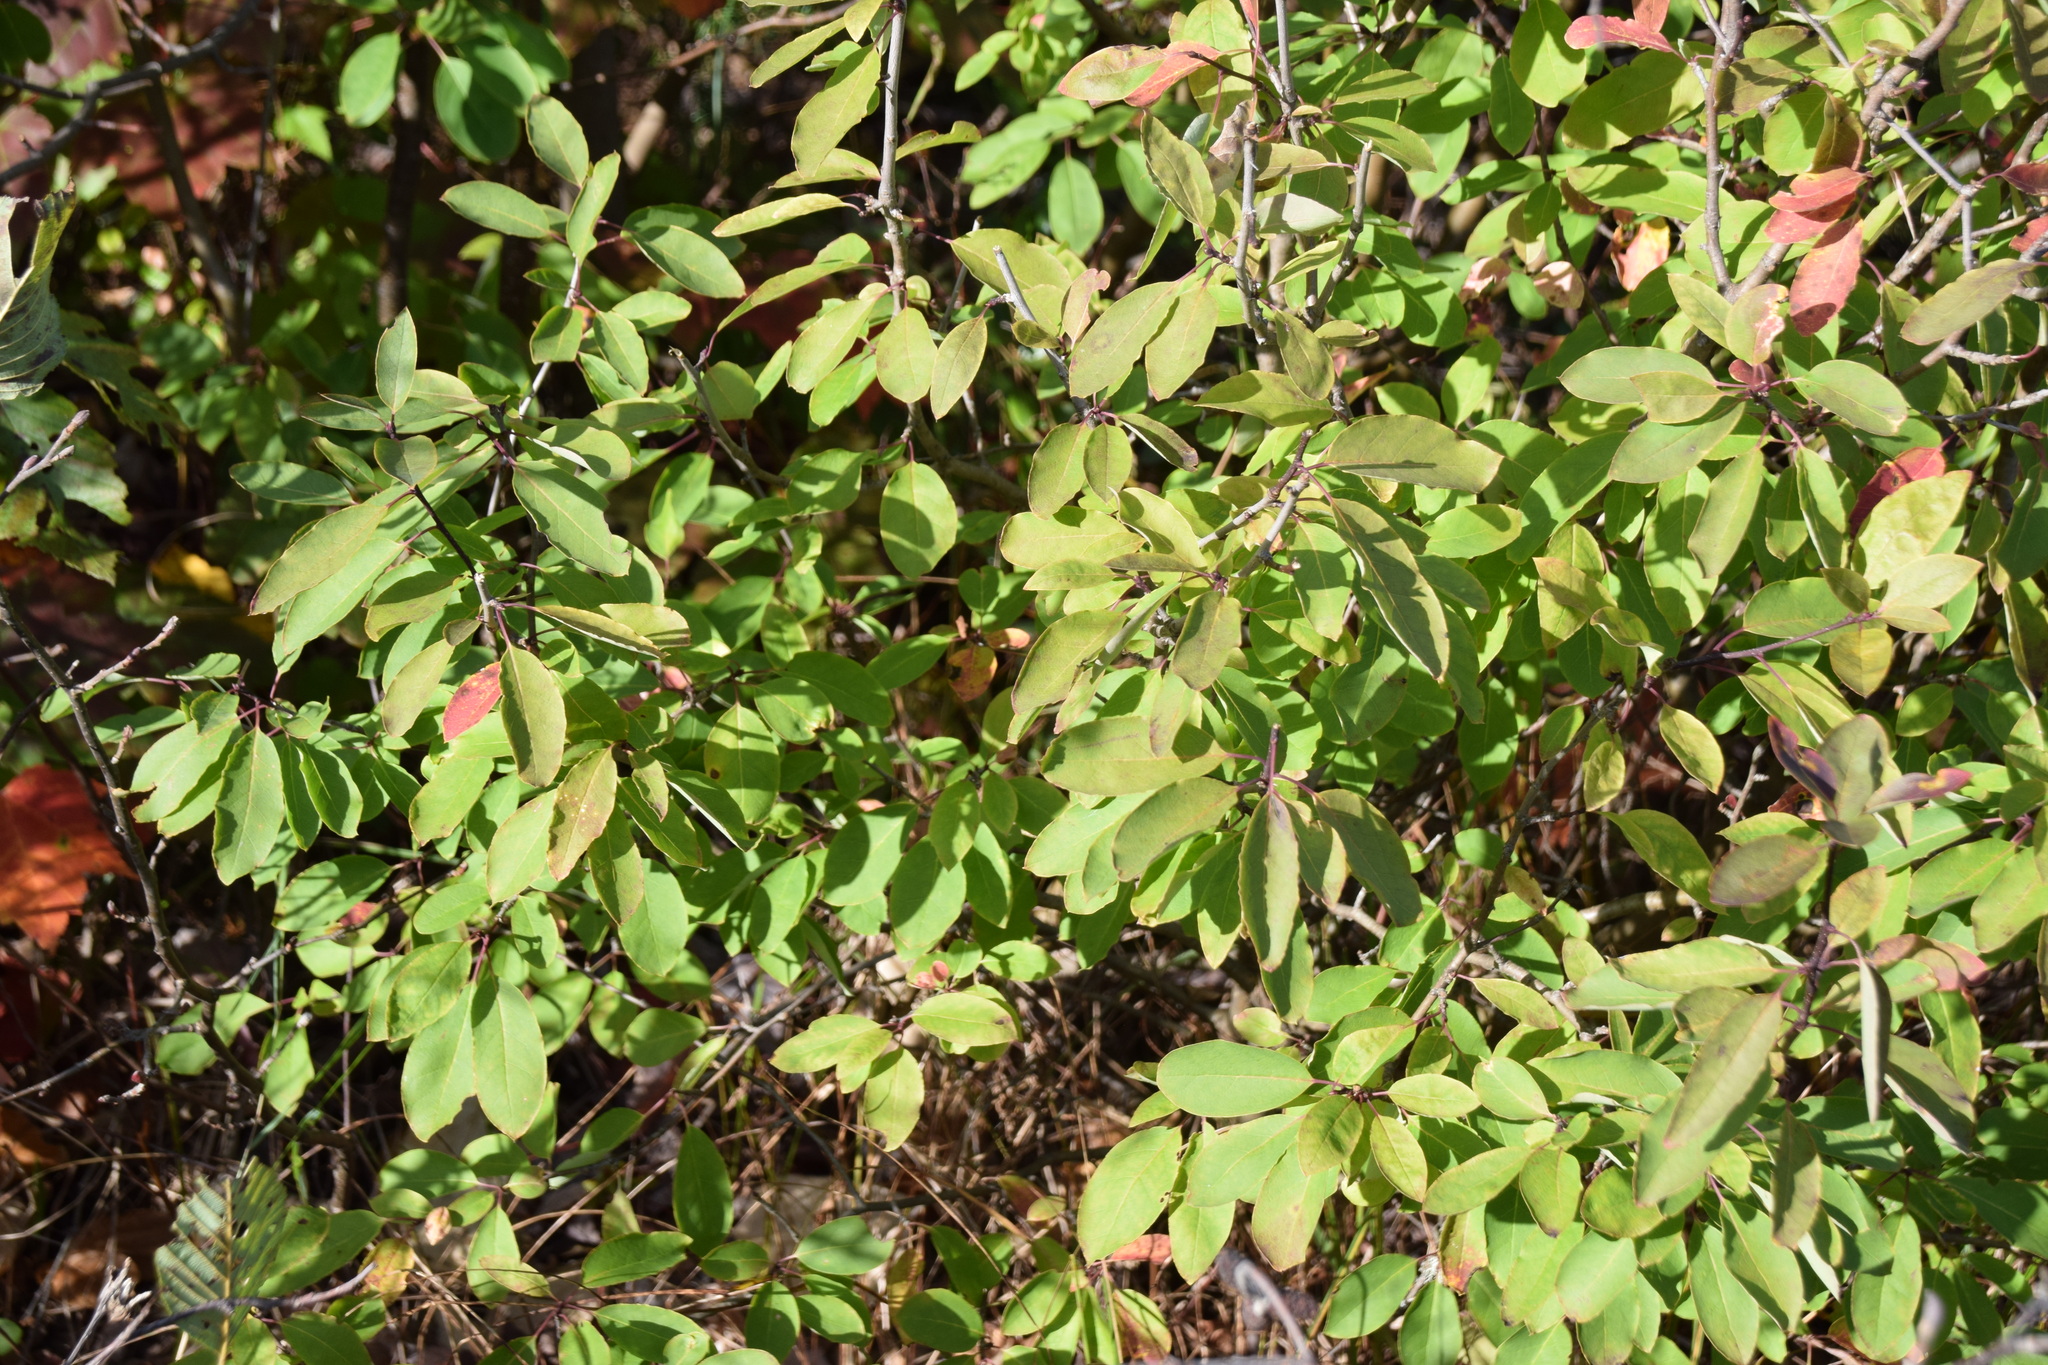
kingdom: Plantae
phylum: Tracheophyta
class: Magnoliopsida
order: Aquifoliales
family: Aquifoliaceae
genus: Ilex
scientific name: Ilex mucronata
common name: Catberry
